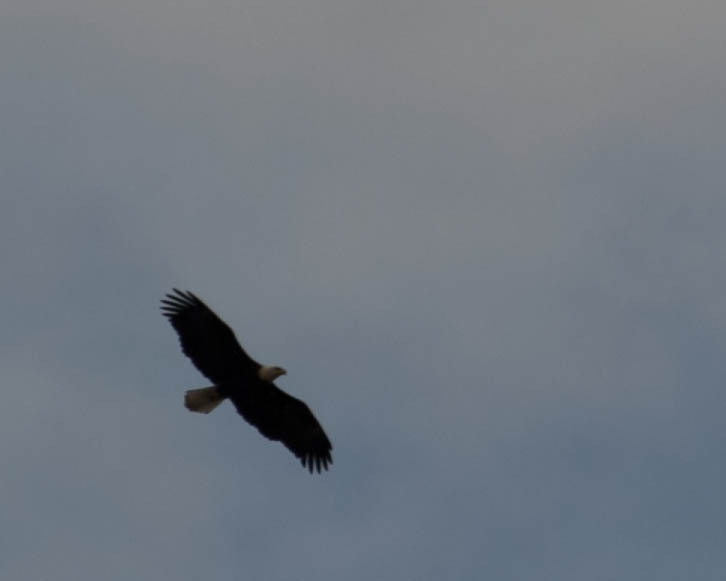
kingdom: Animalia
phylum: Chordata
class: Aves
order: Accipitriformes
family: Accipitridae
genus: Haliaeetus
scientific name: Haliaeetus leucocephalus
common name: Bald eagle
